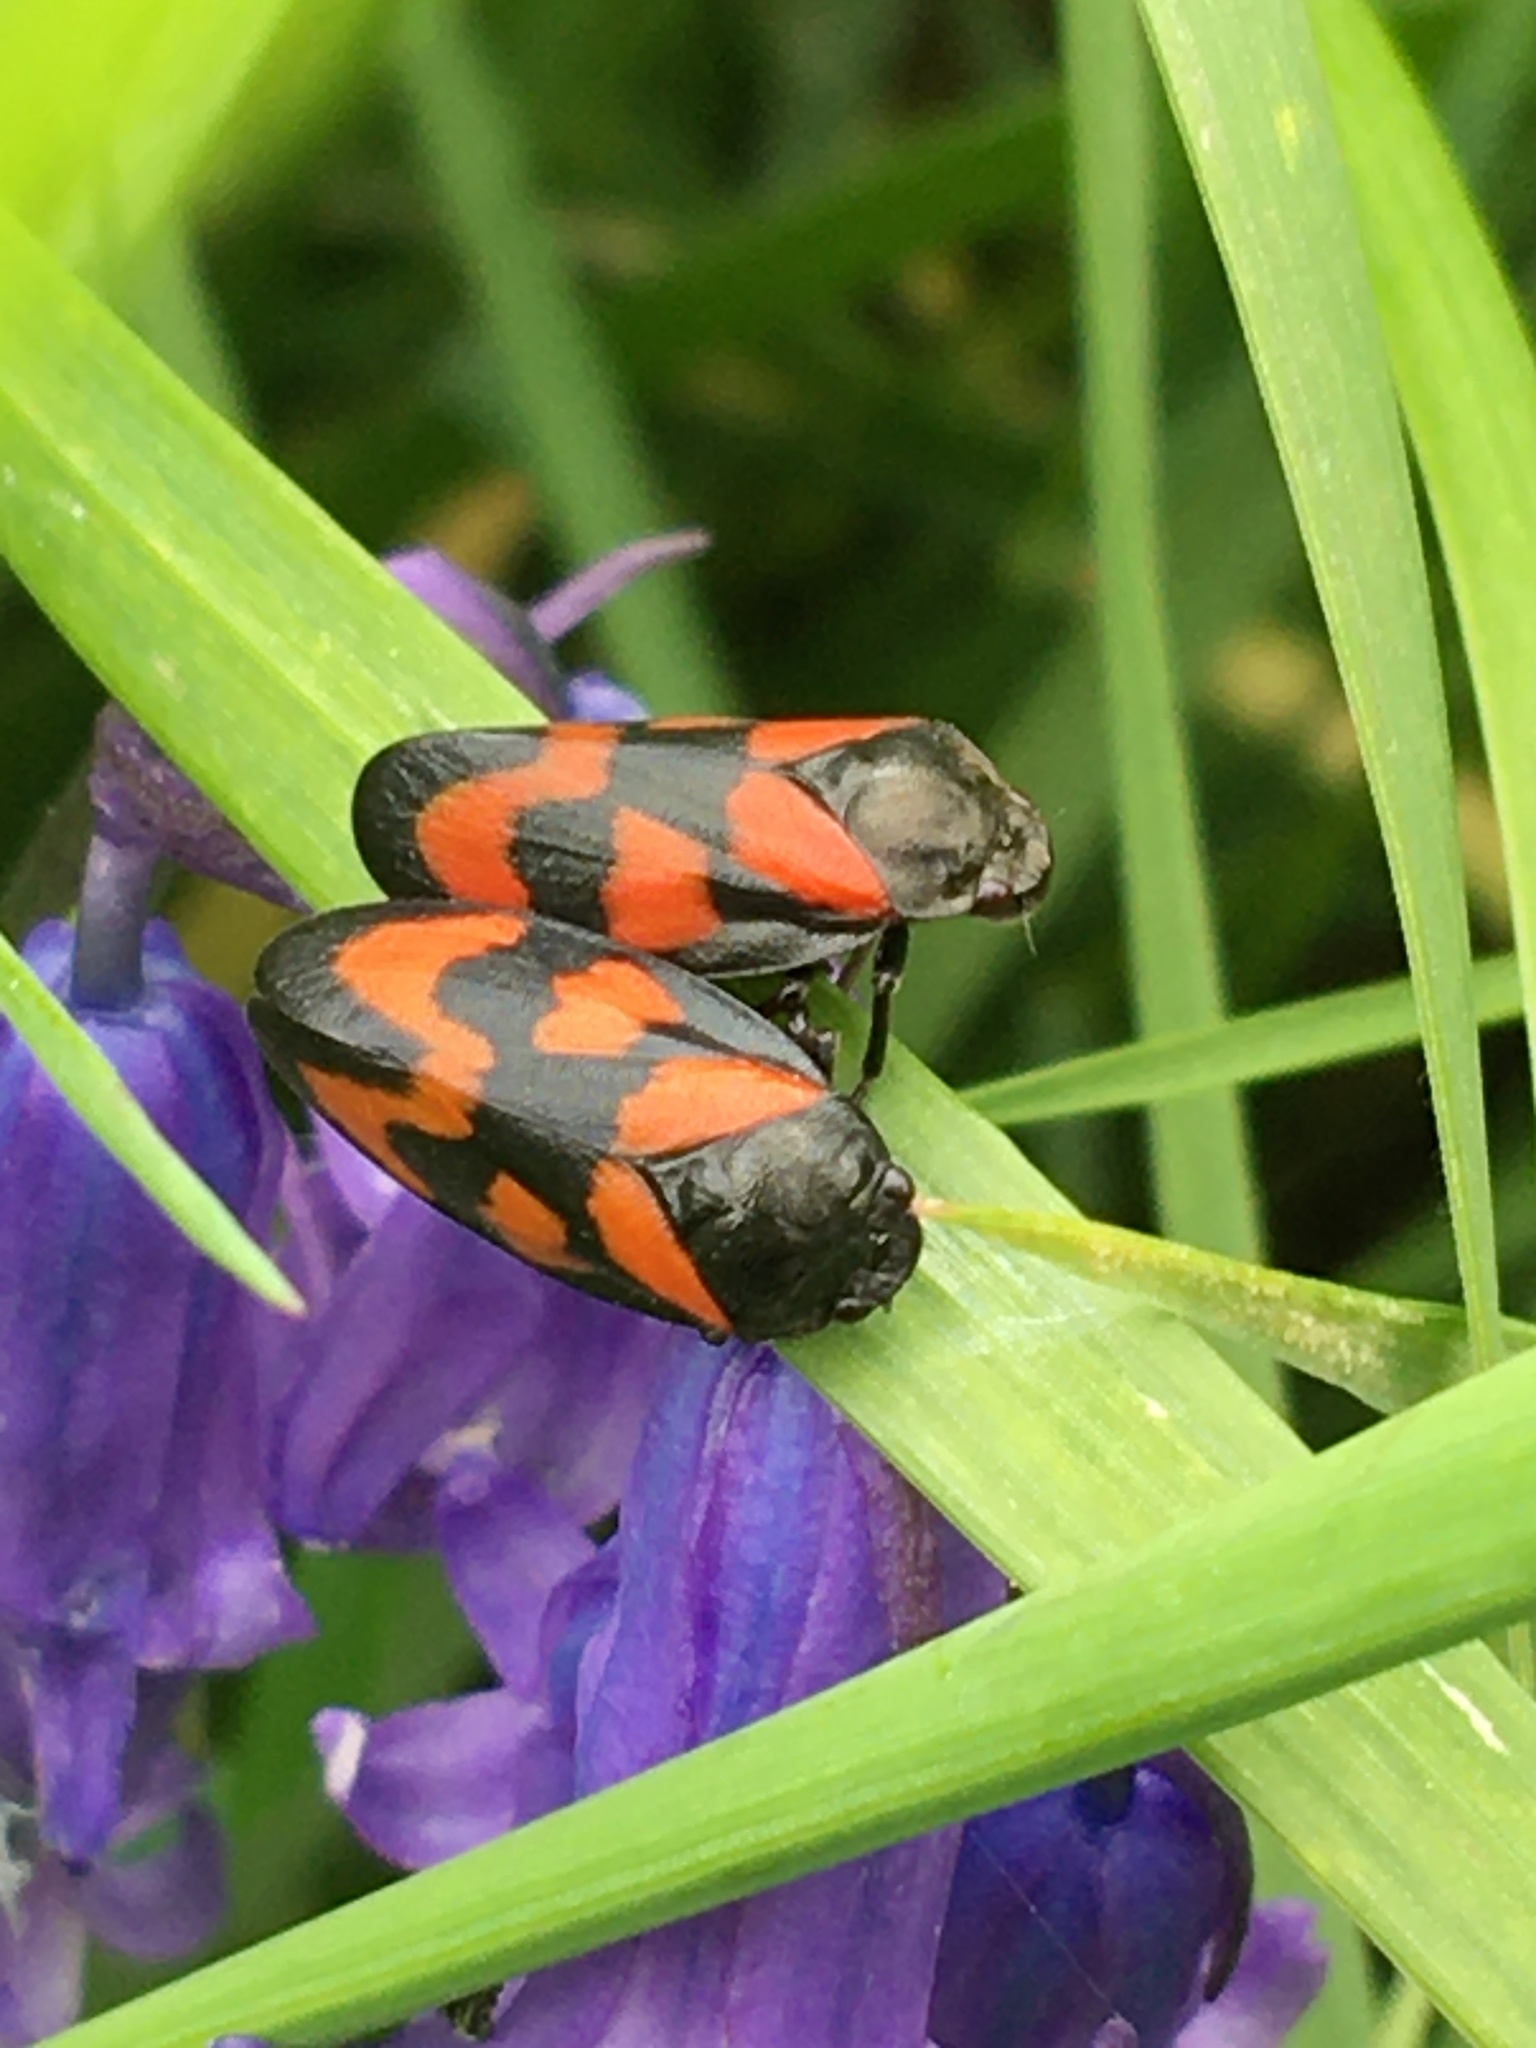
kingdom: Animalia
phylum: Arthropoda
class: Insecta
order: Hemiptera
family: Cercopidae
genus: Cercopis
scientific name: Cercopis vulnerata
